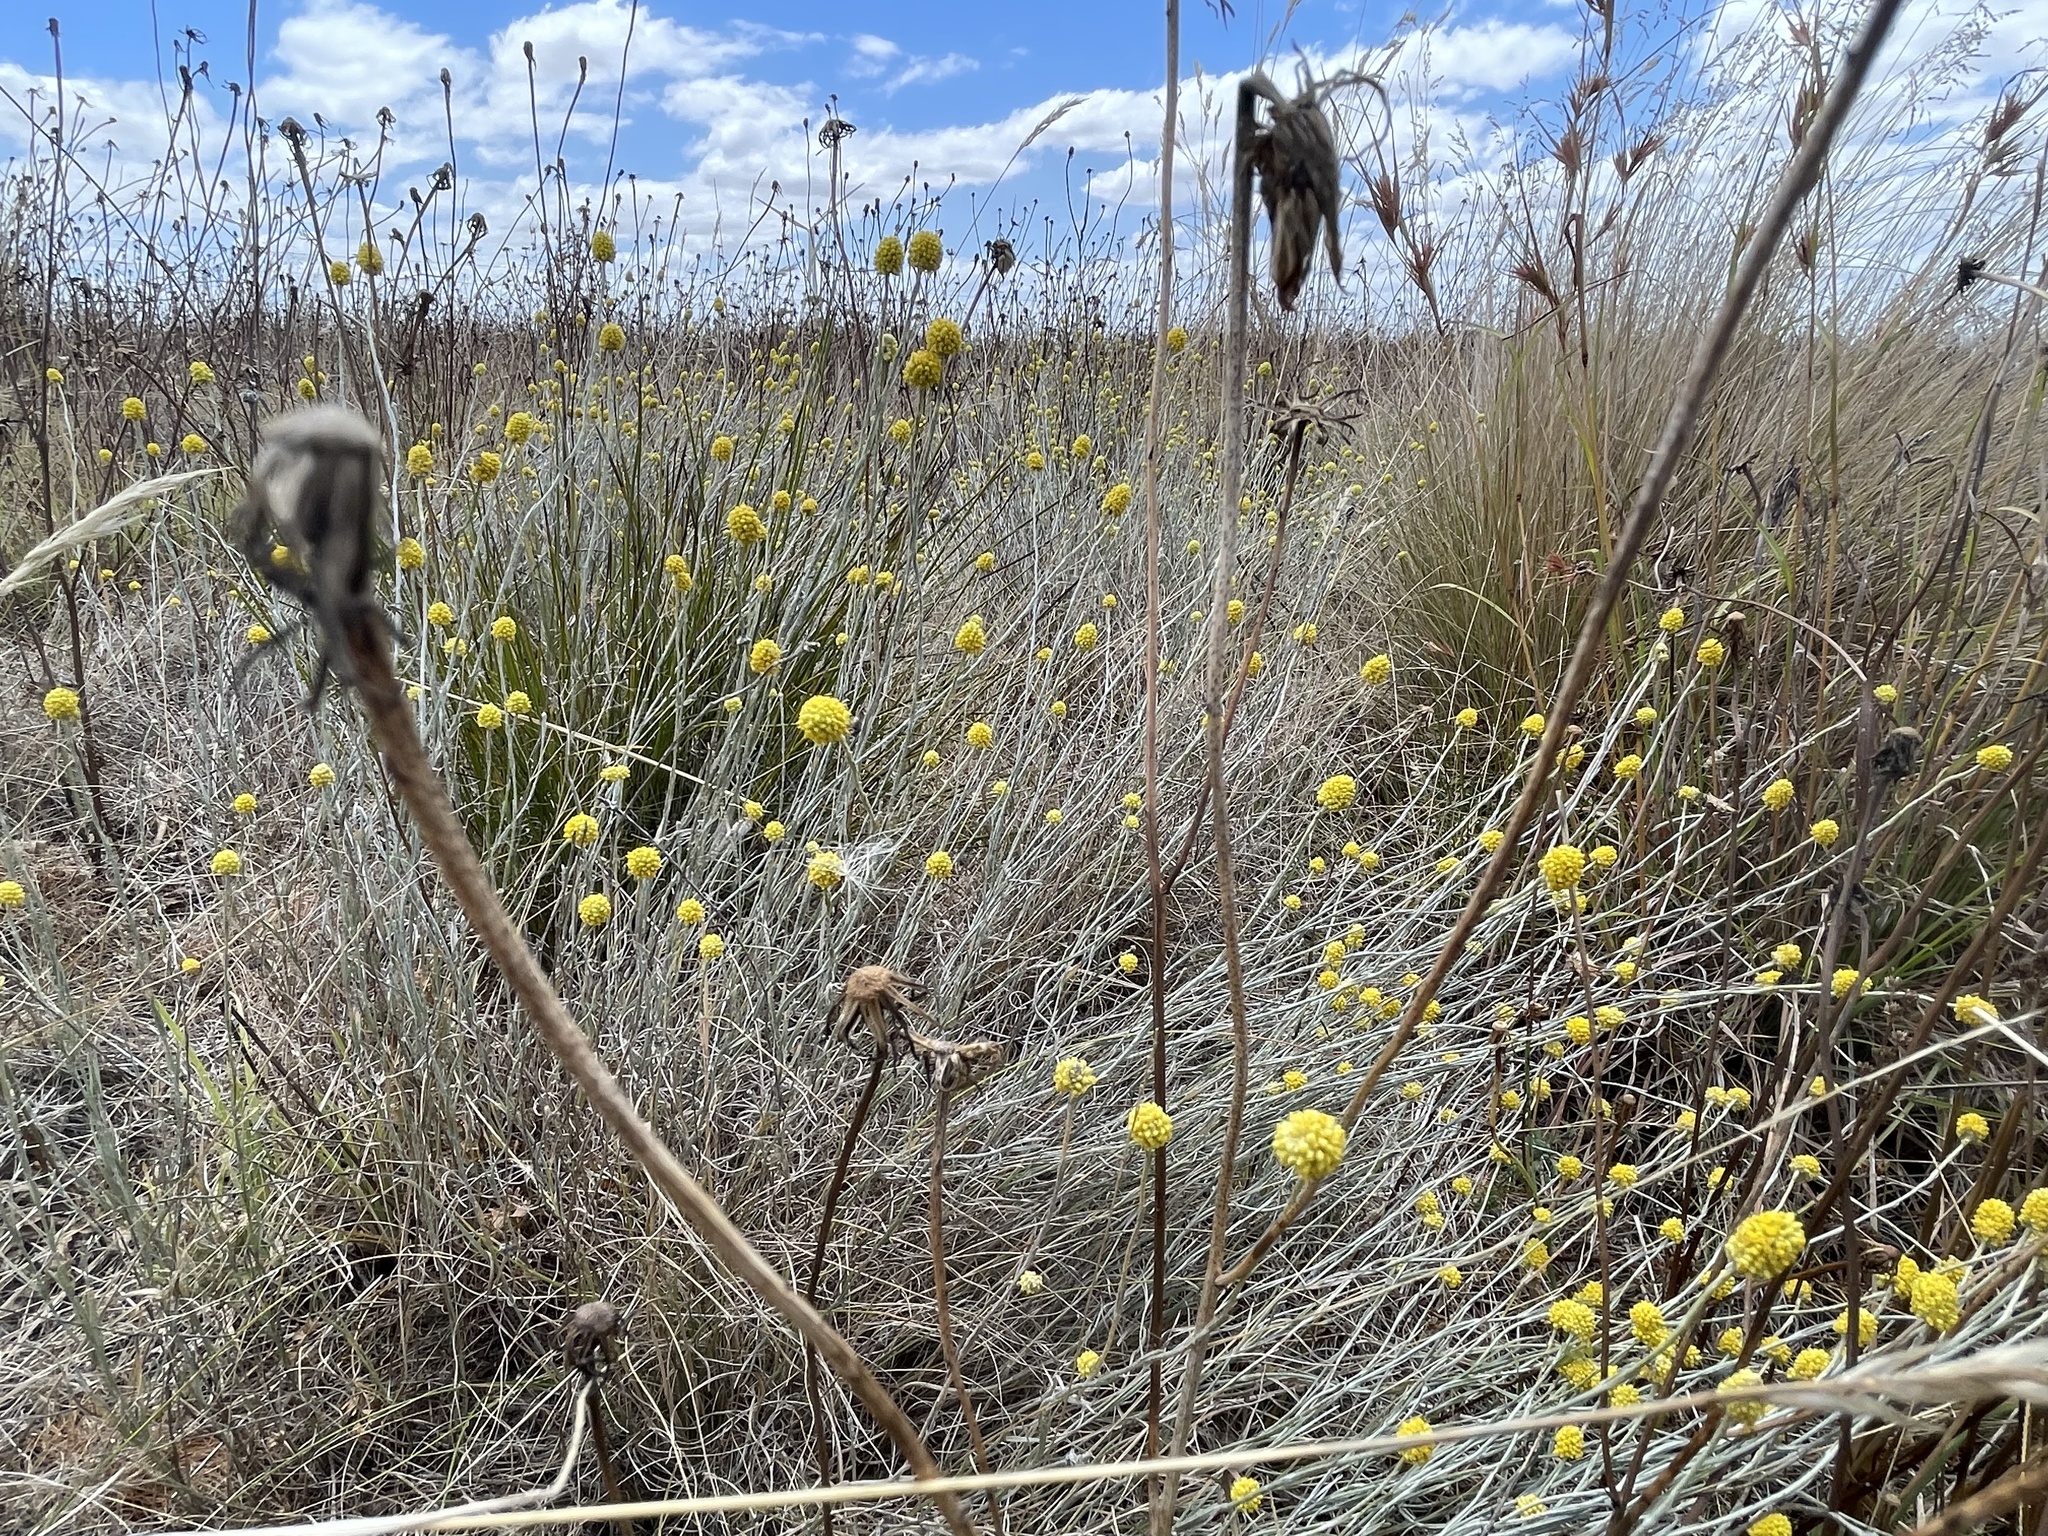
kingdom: Plantae
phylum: Tracheophyta
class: Magnoliopsida
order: Asterales
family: Asteraceae
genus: Calocephalus
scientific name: Calocephalus citreus
